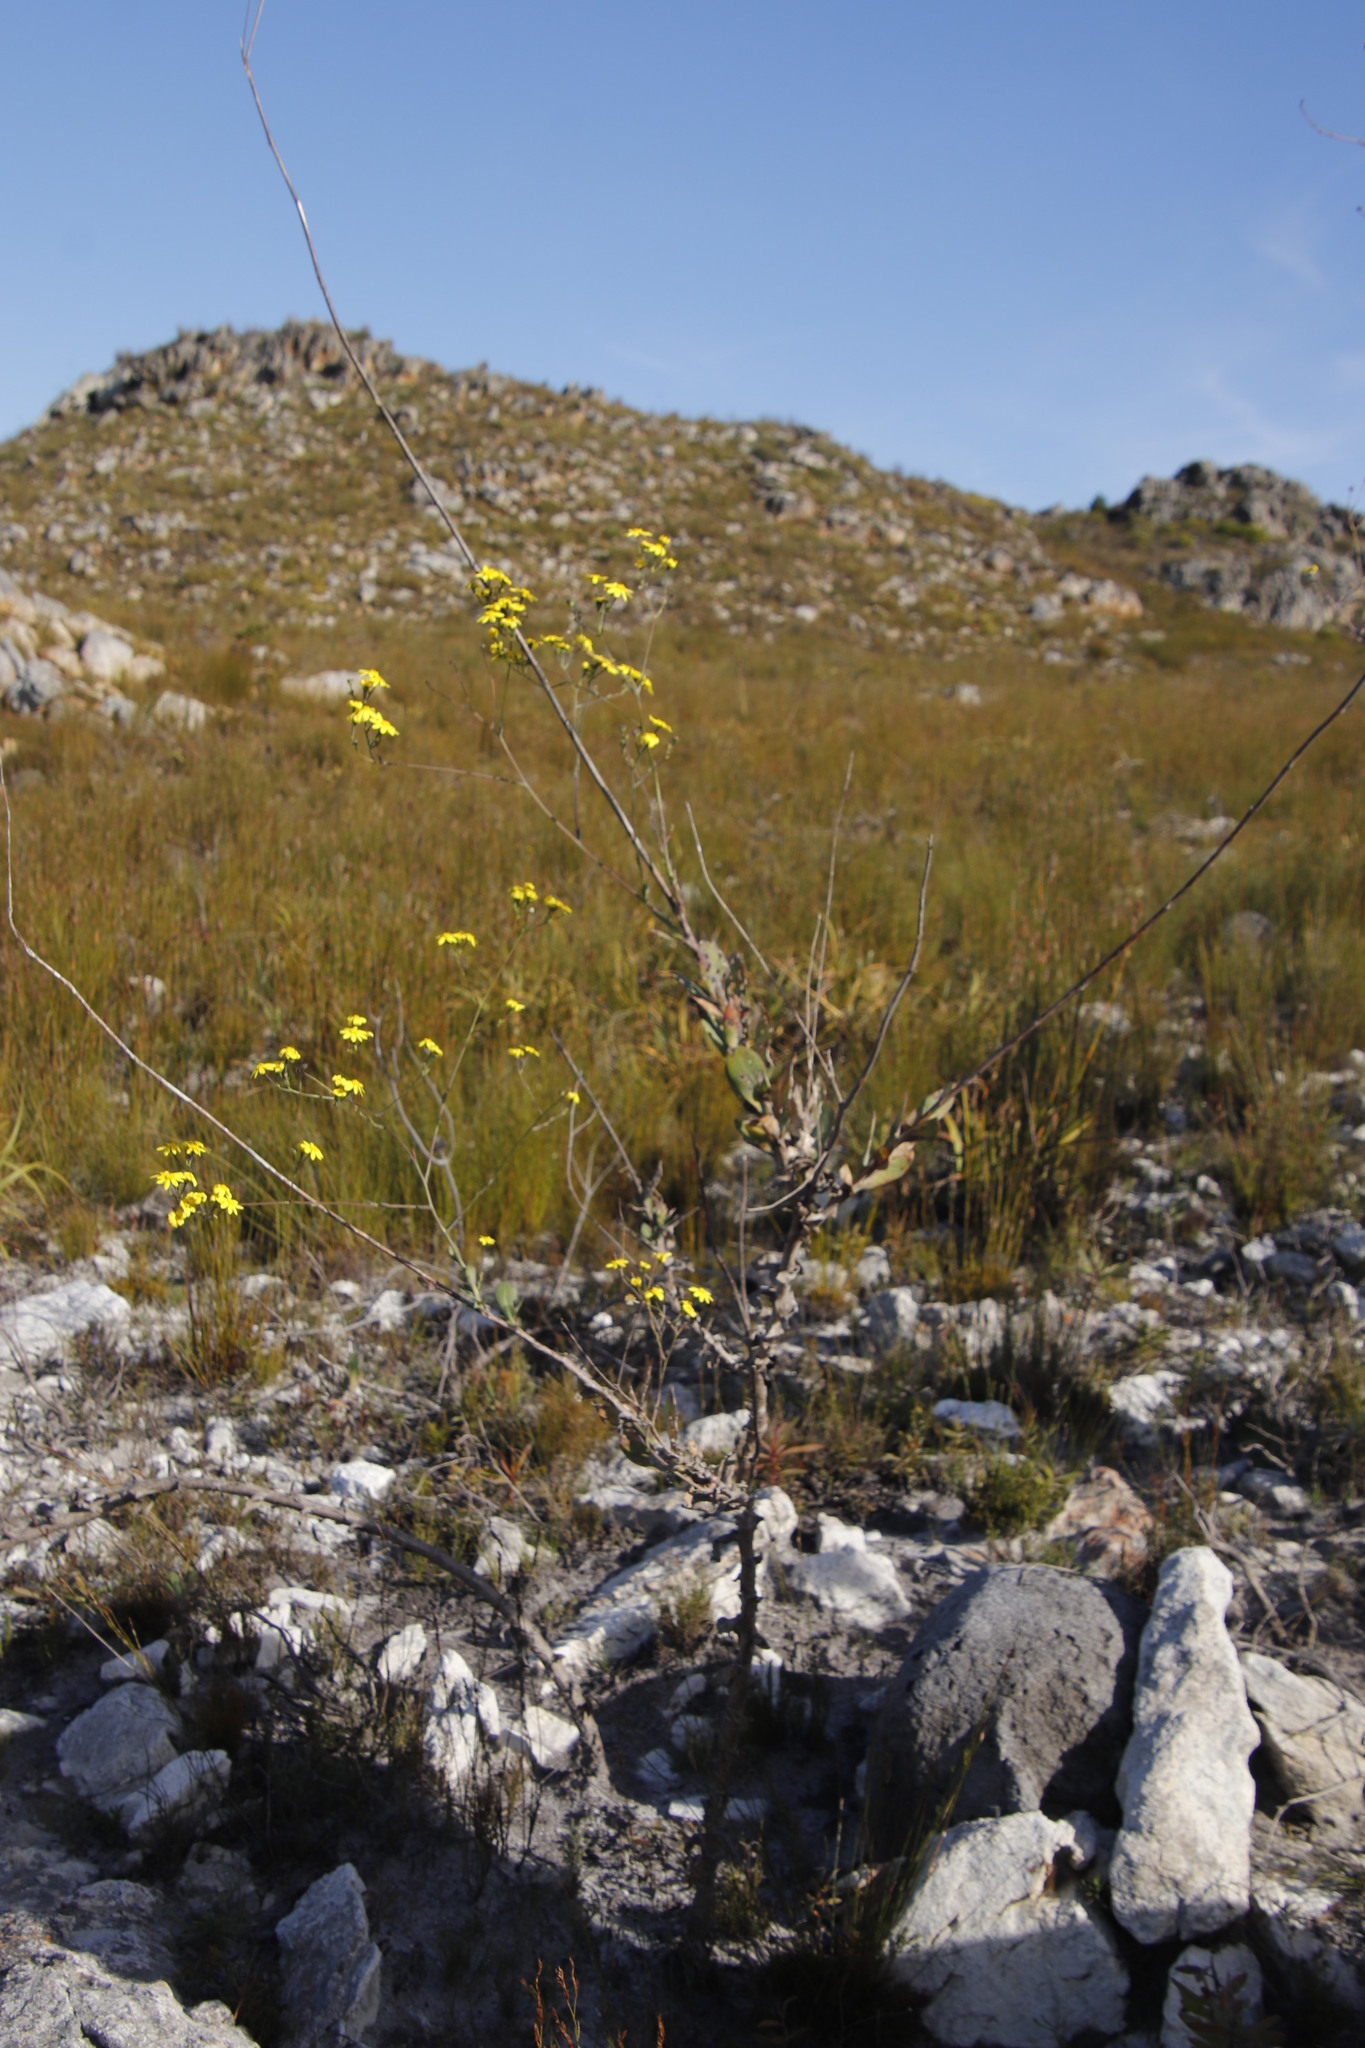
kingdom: Plantae
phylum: Tracheophyta
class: Magnoliopsida
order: Asterales
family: Asteraceae
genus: Othonna
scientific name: Othonna quinquedentata
